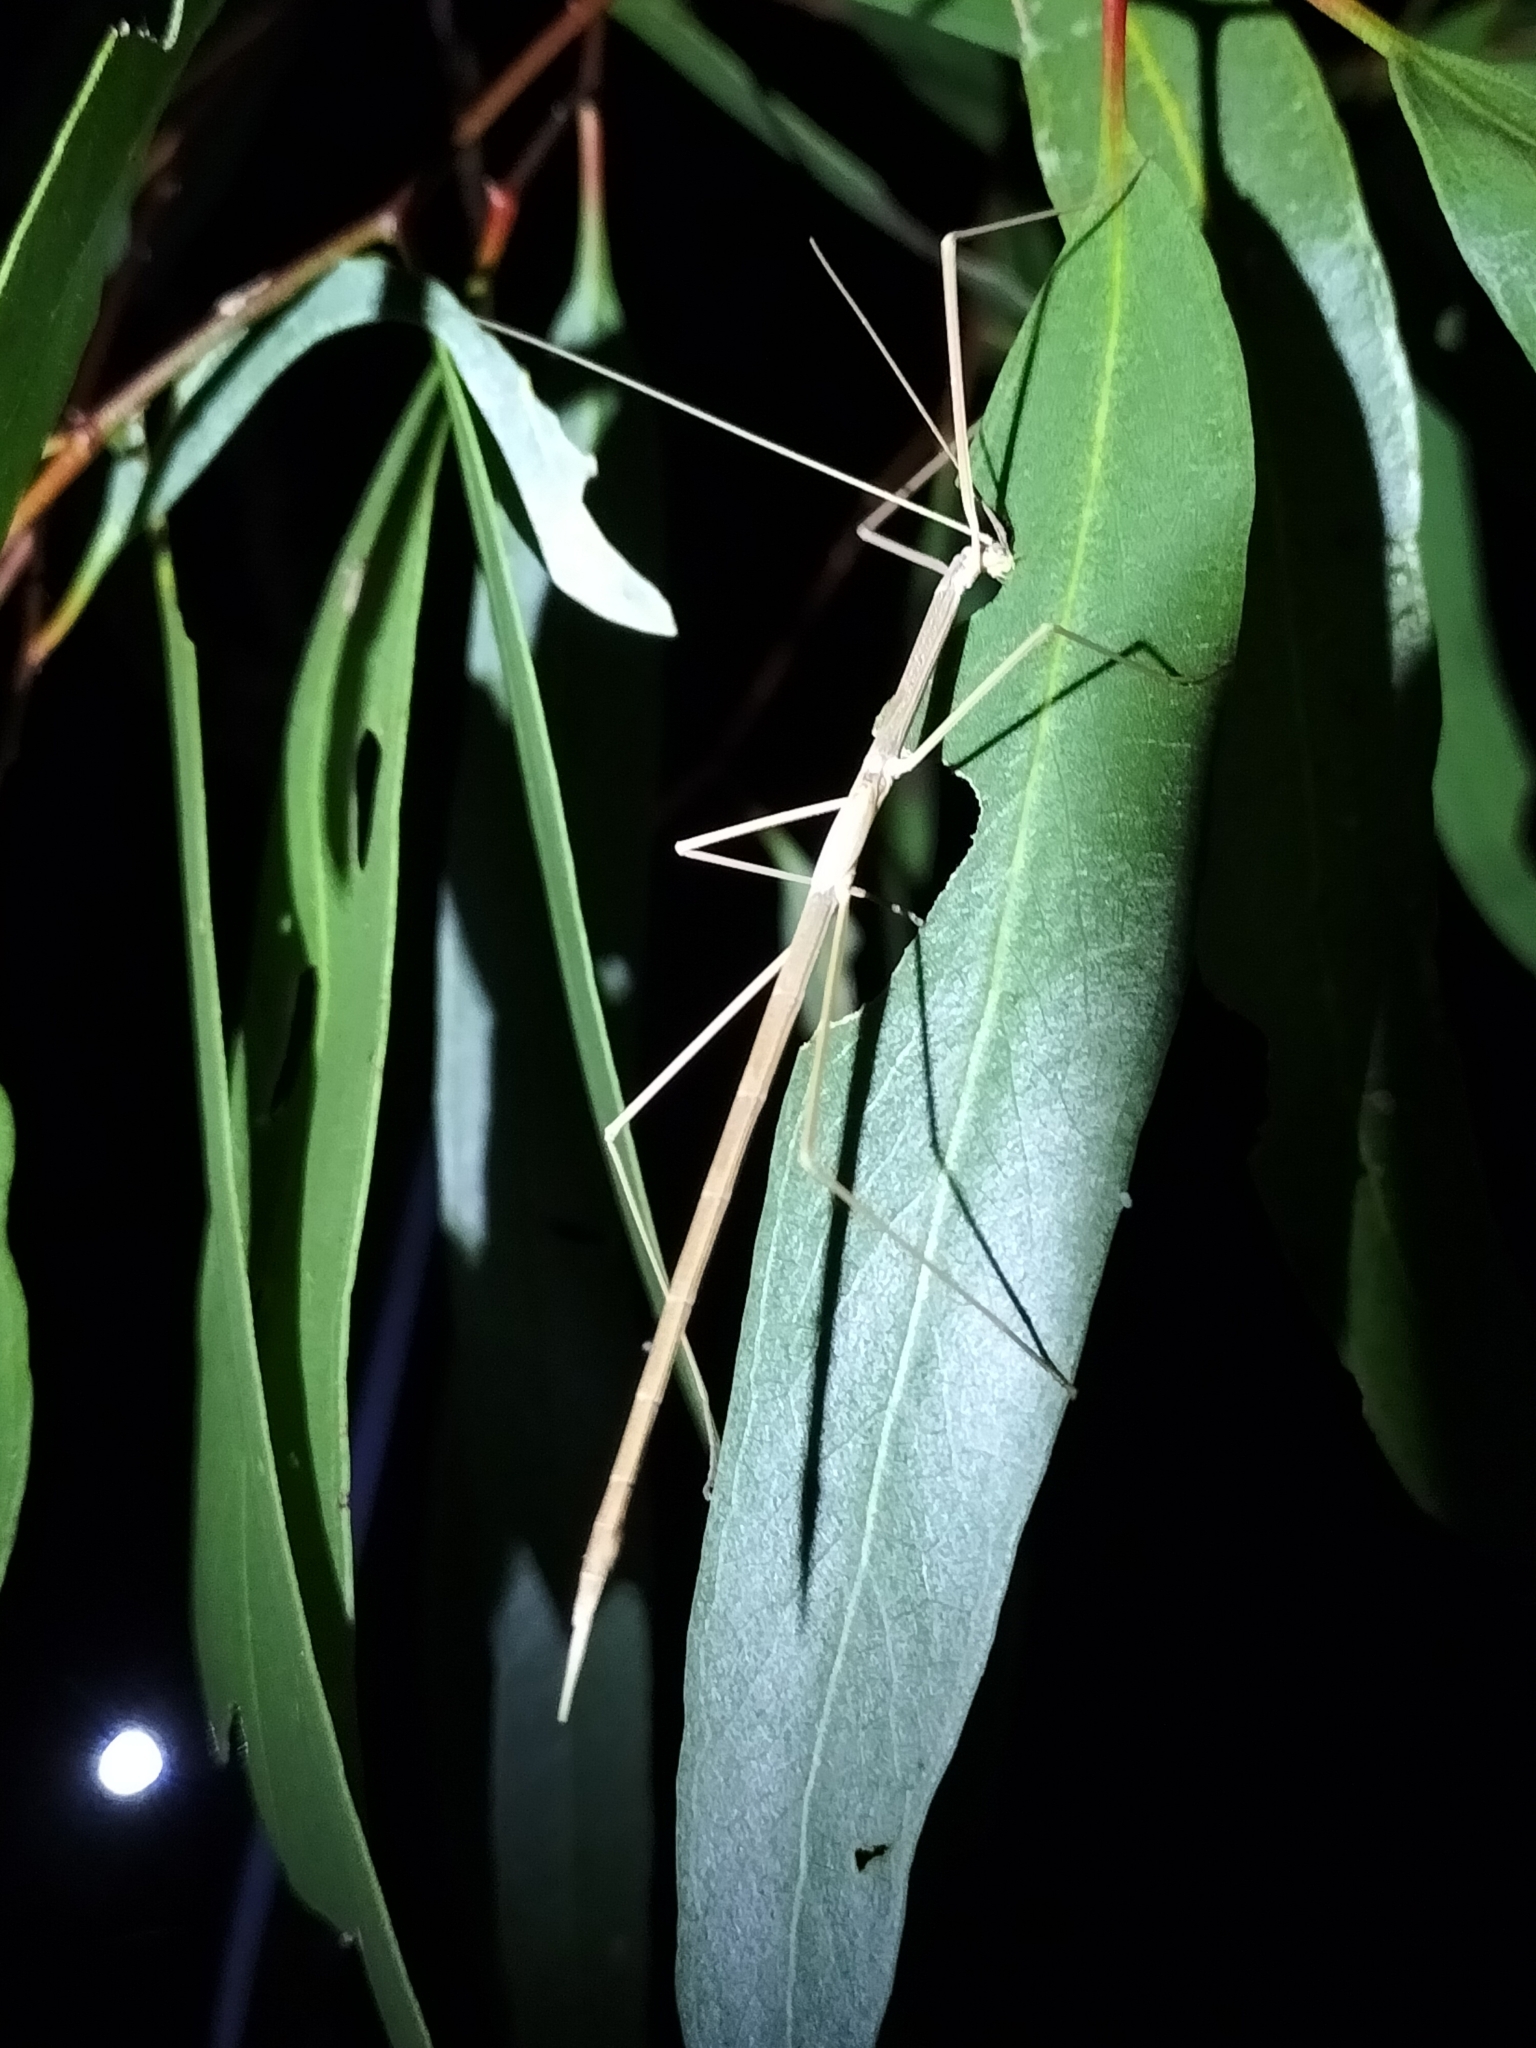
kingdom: Animalia
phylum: Arthropoda
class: Insecta
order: Phasmida
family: Lonchodidae
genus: Austrosipyloidea
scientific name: Austrosipyloidea carterus
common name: Black-striped stick-insect
